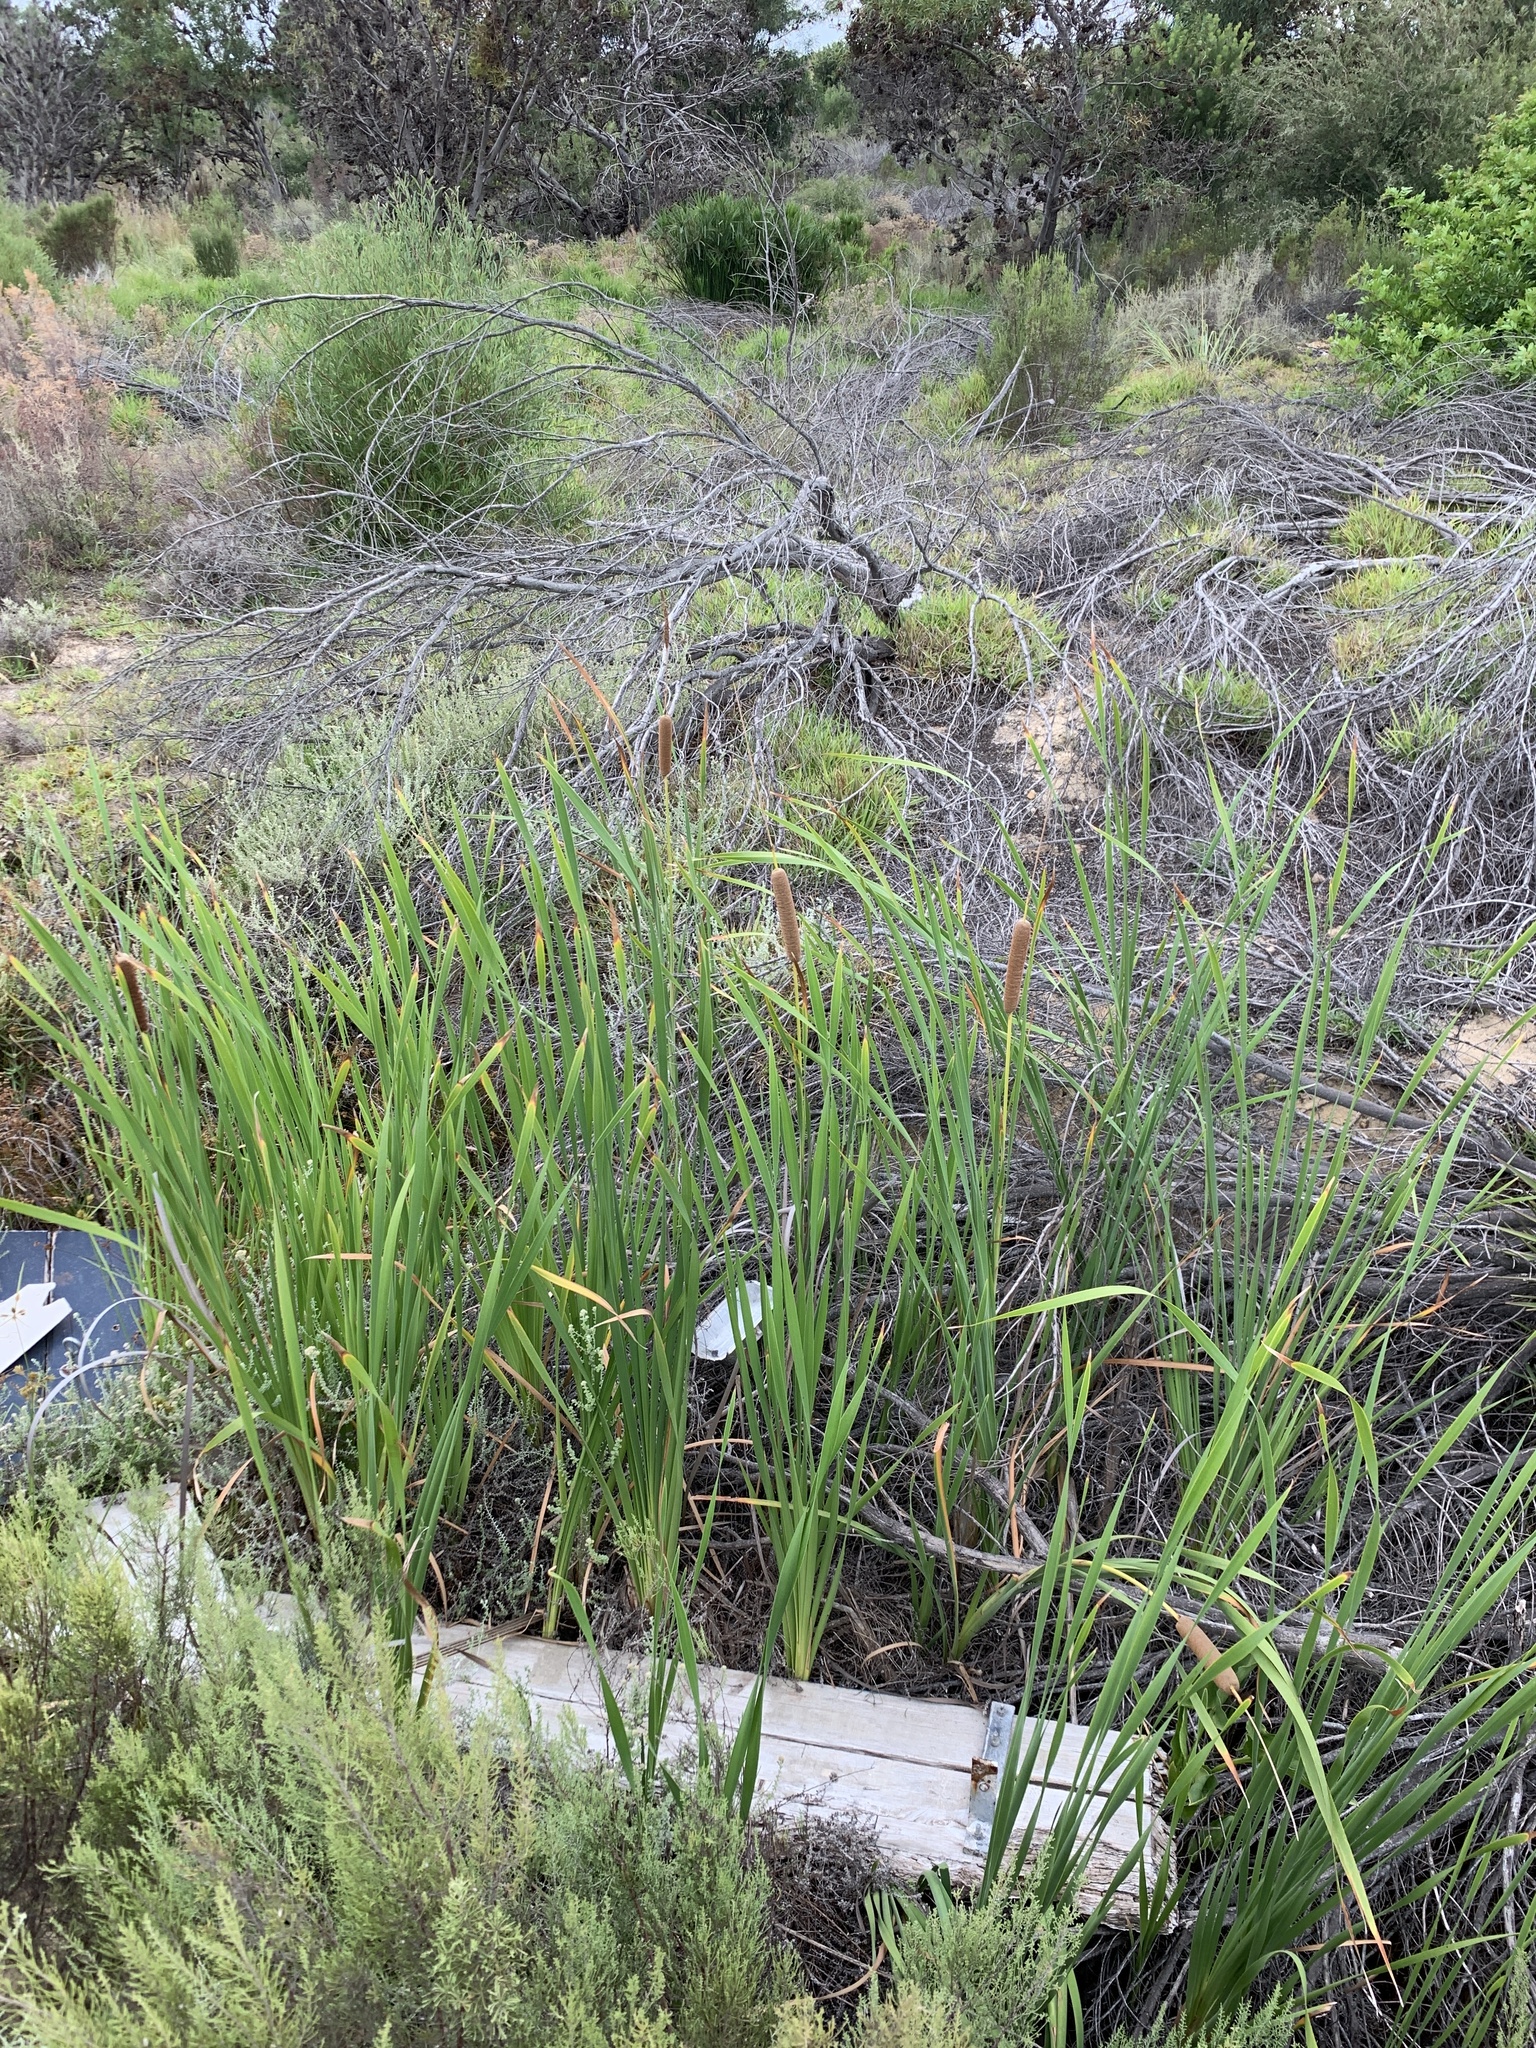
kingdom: Plantae
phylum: Tracheophyta
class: Liliopsida
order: Poales
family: Typhaceae
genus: Typha
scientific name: Typha capensis
